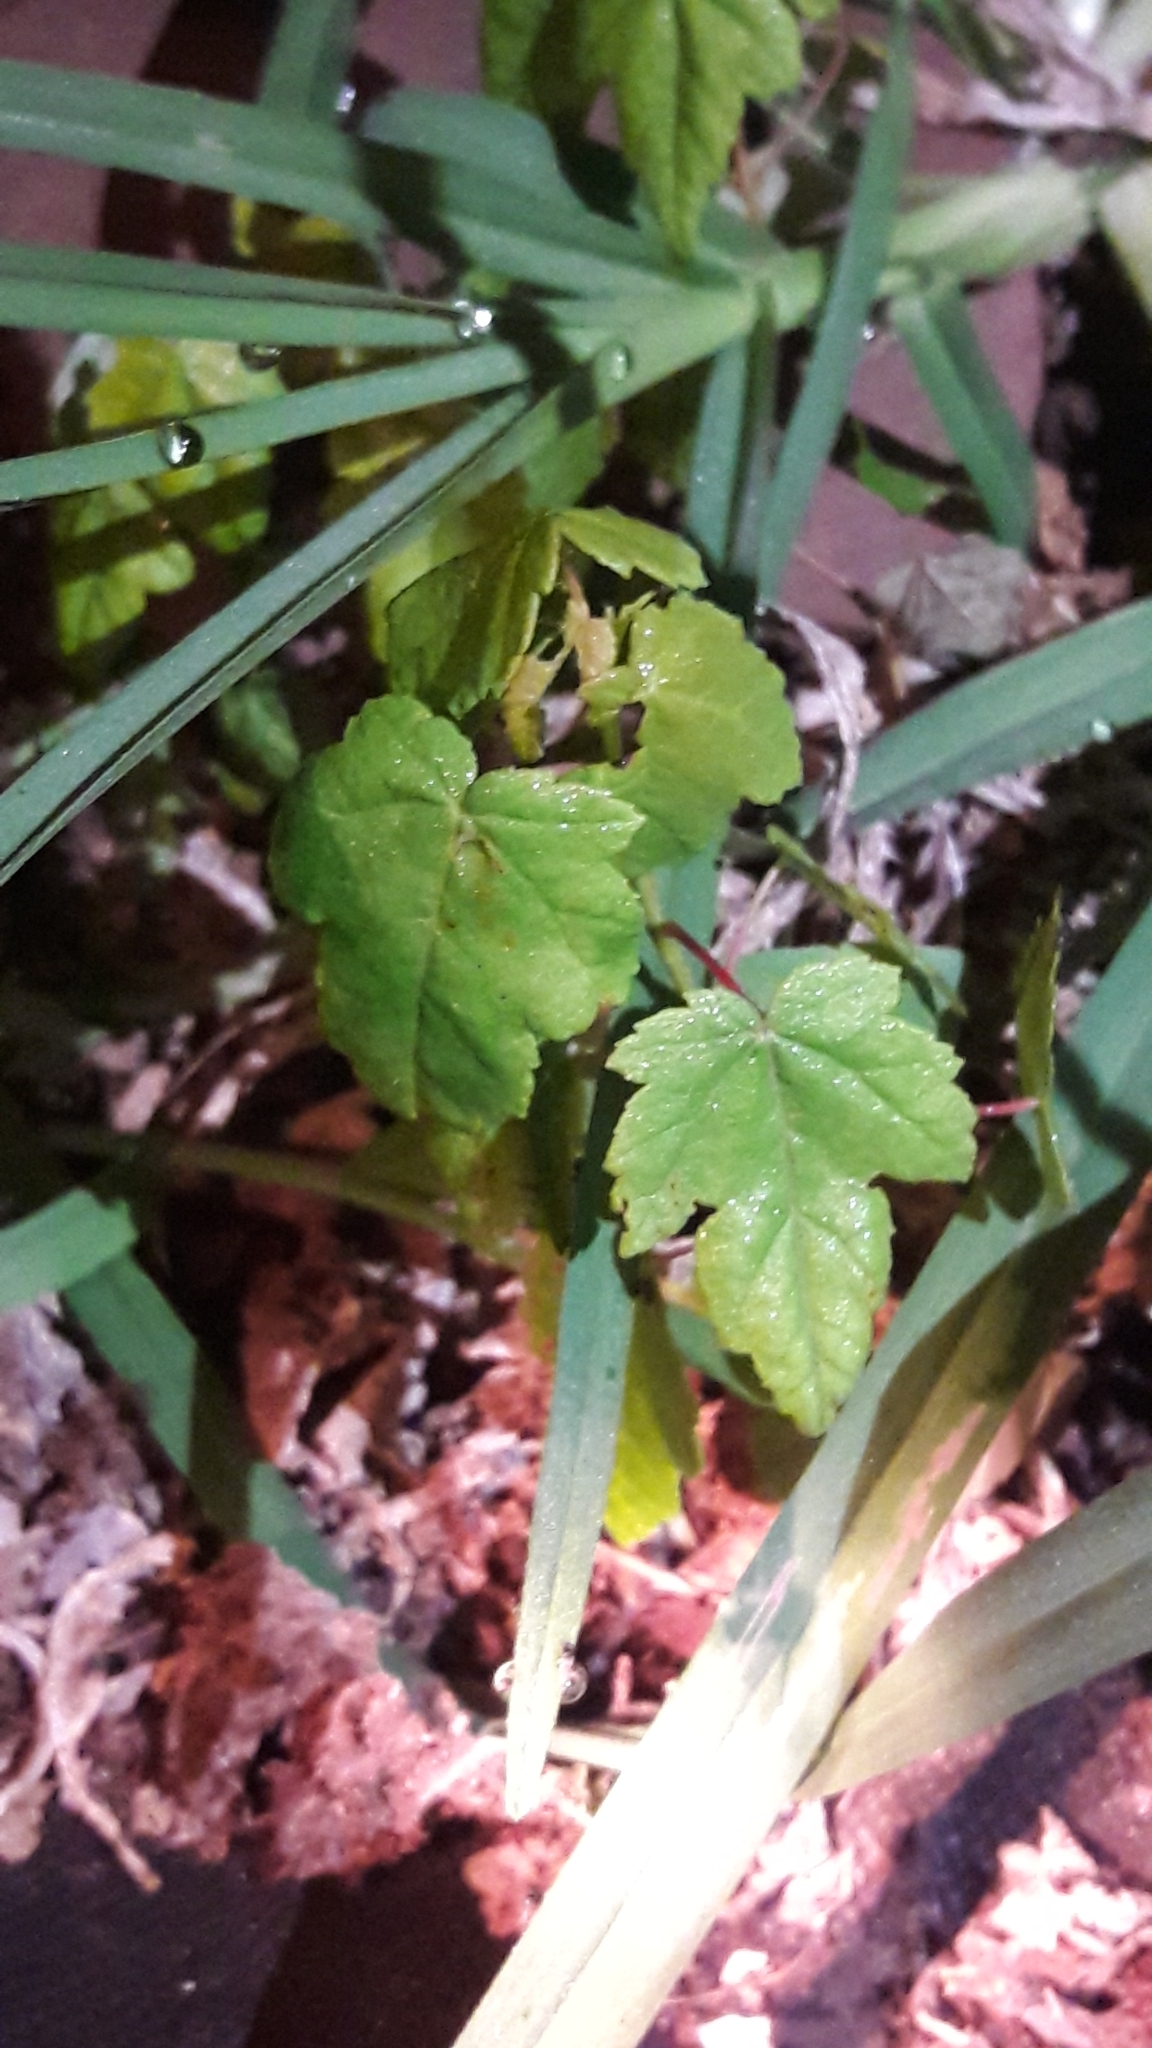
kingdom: Plantae
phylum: Tracheophyta
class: Magnoliopsida
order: Sapindales
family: Sapindaceae
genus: Acer
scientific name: Acer rubrum
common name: Red maple
